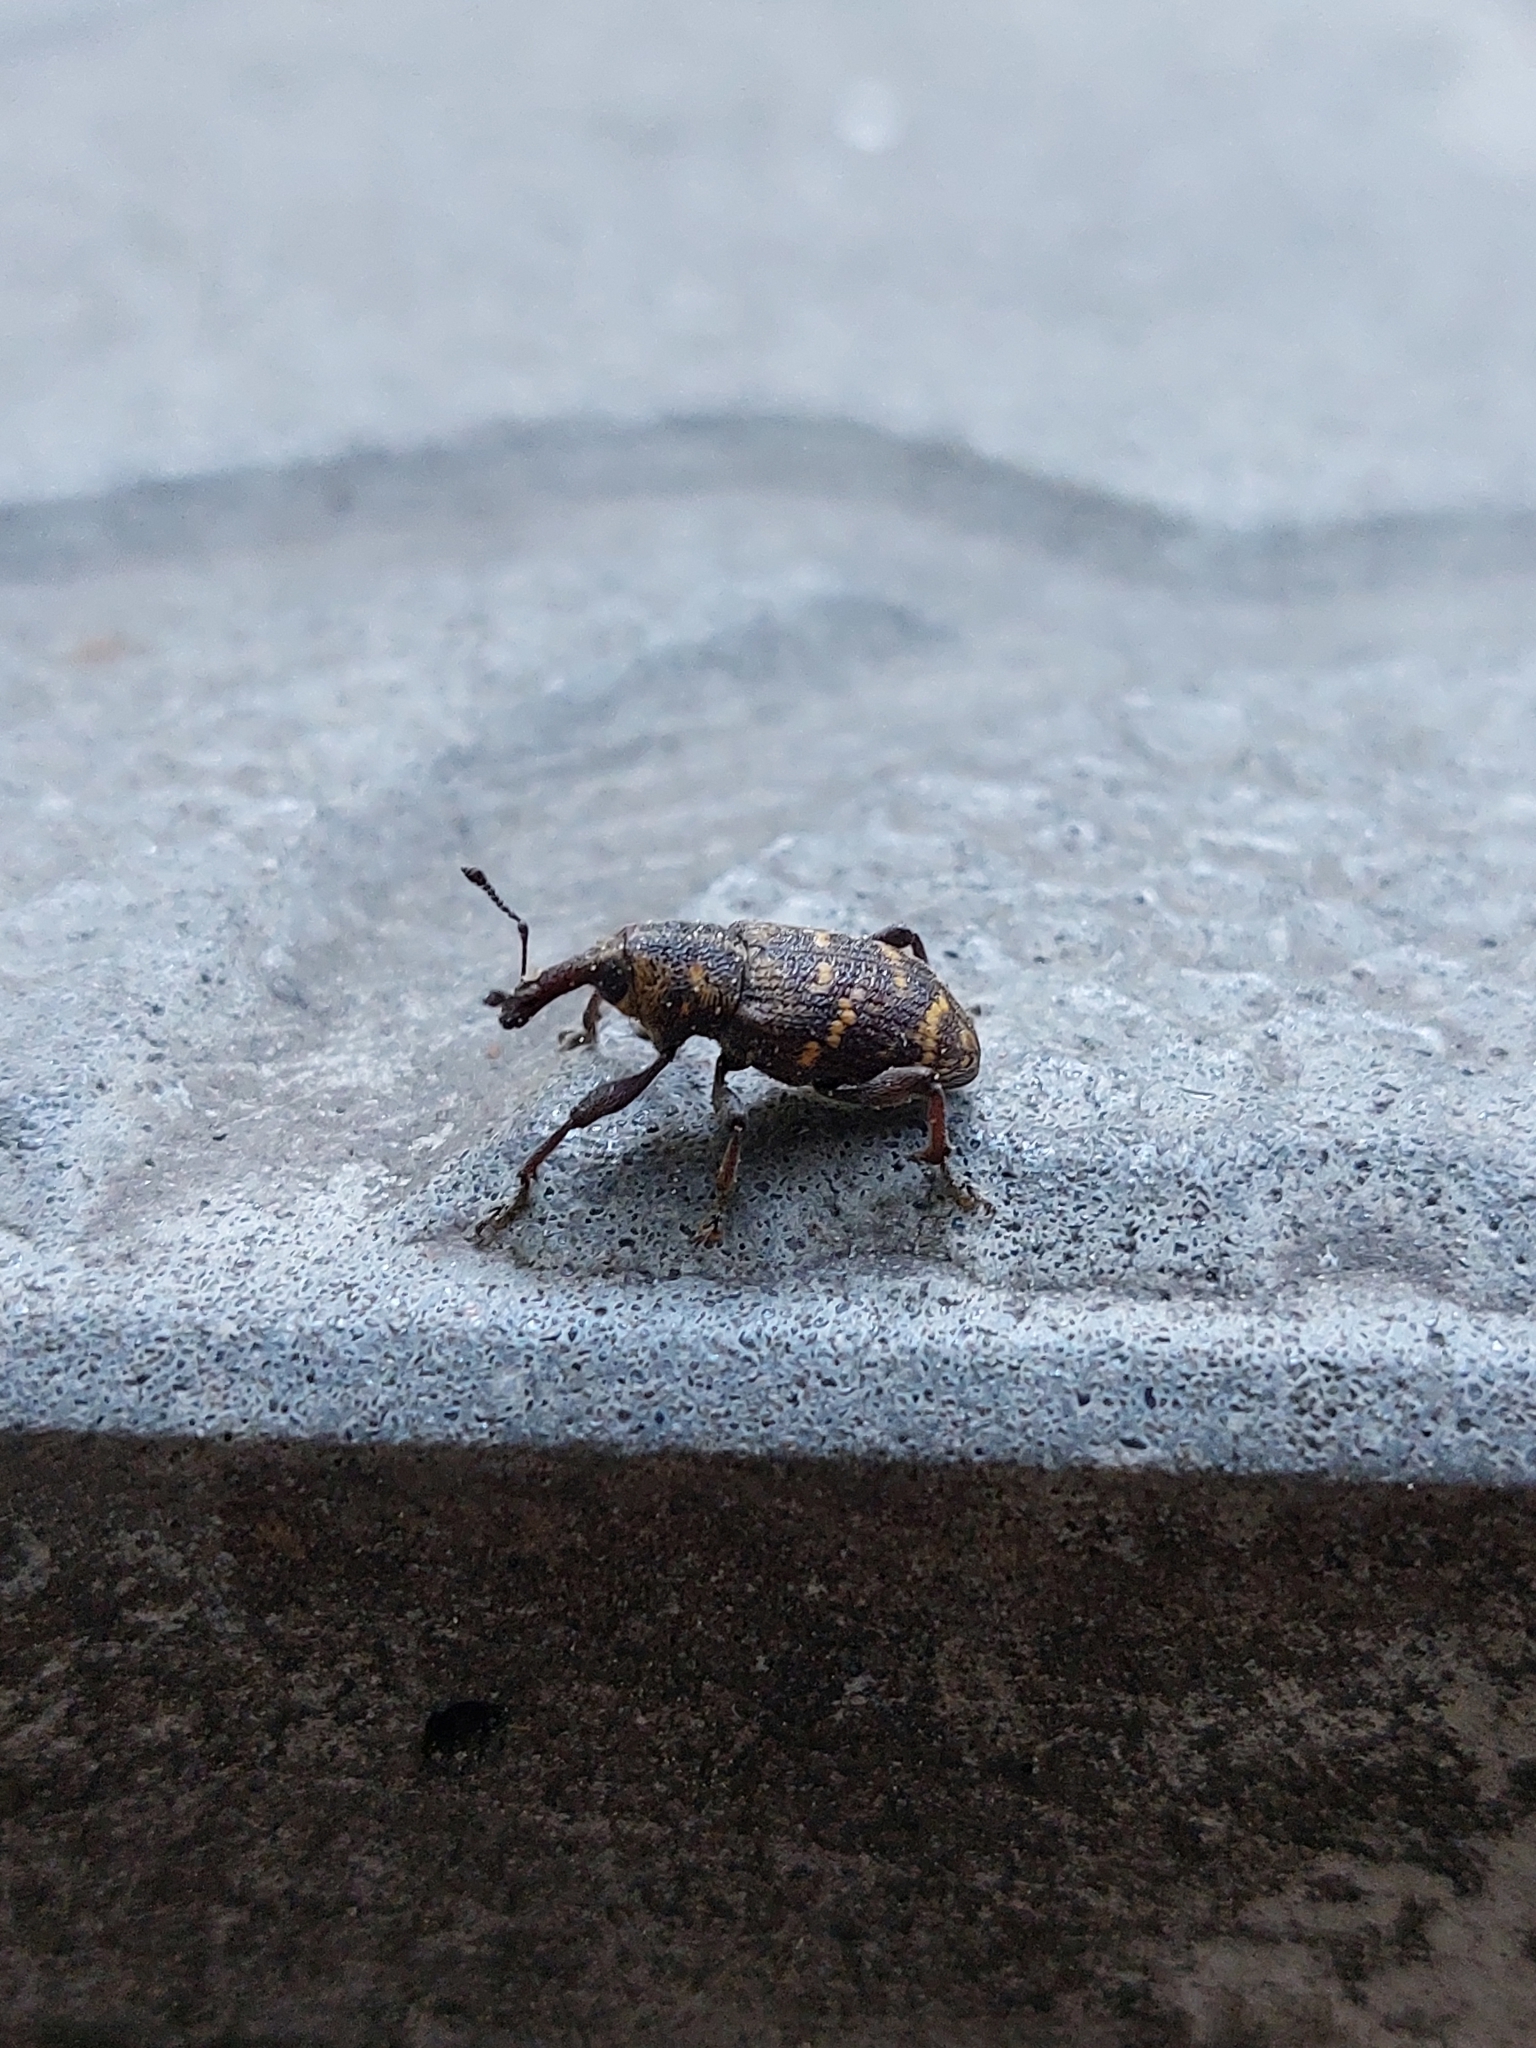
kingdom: Animalia
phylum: Arthropoda
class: Insecta
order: Coleoptera
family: Curculionidae
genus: Hylobius
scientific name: Hylobius abietis
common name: Large pine weevil
